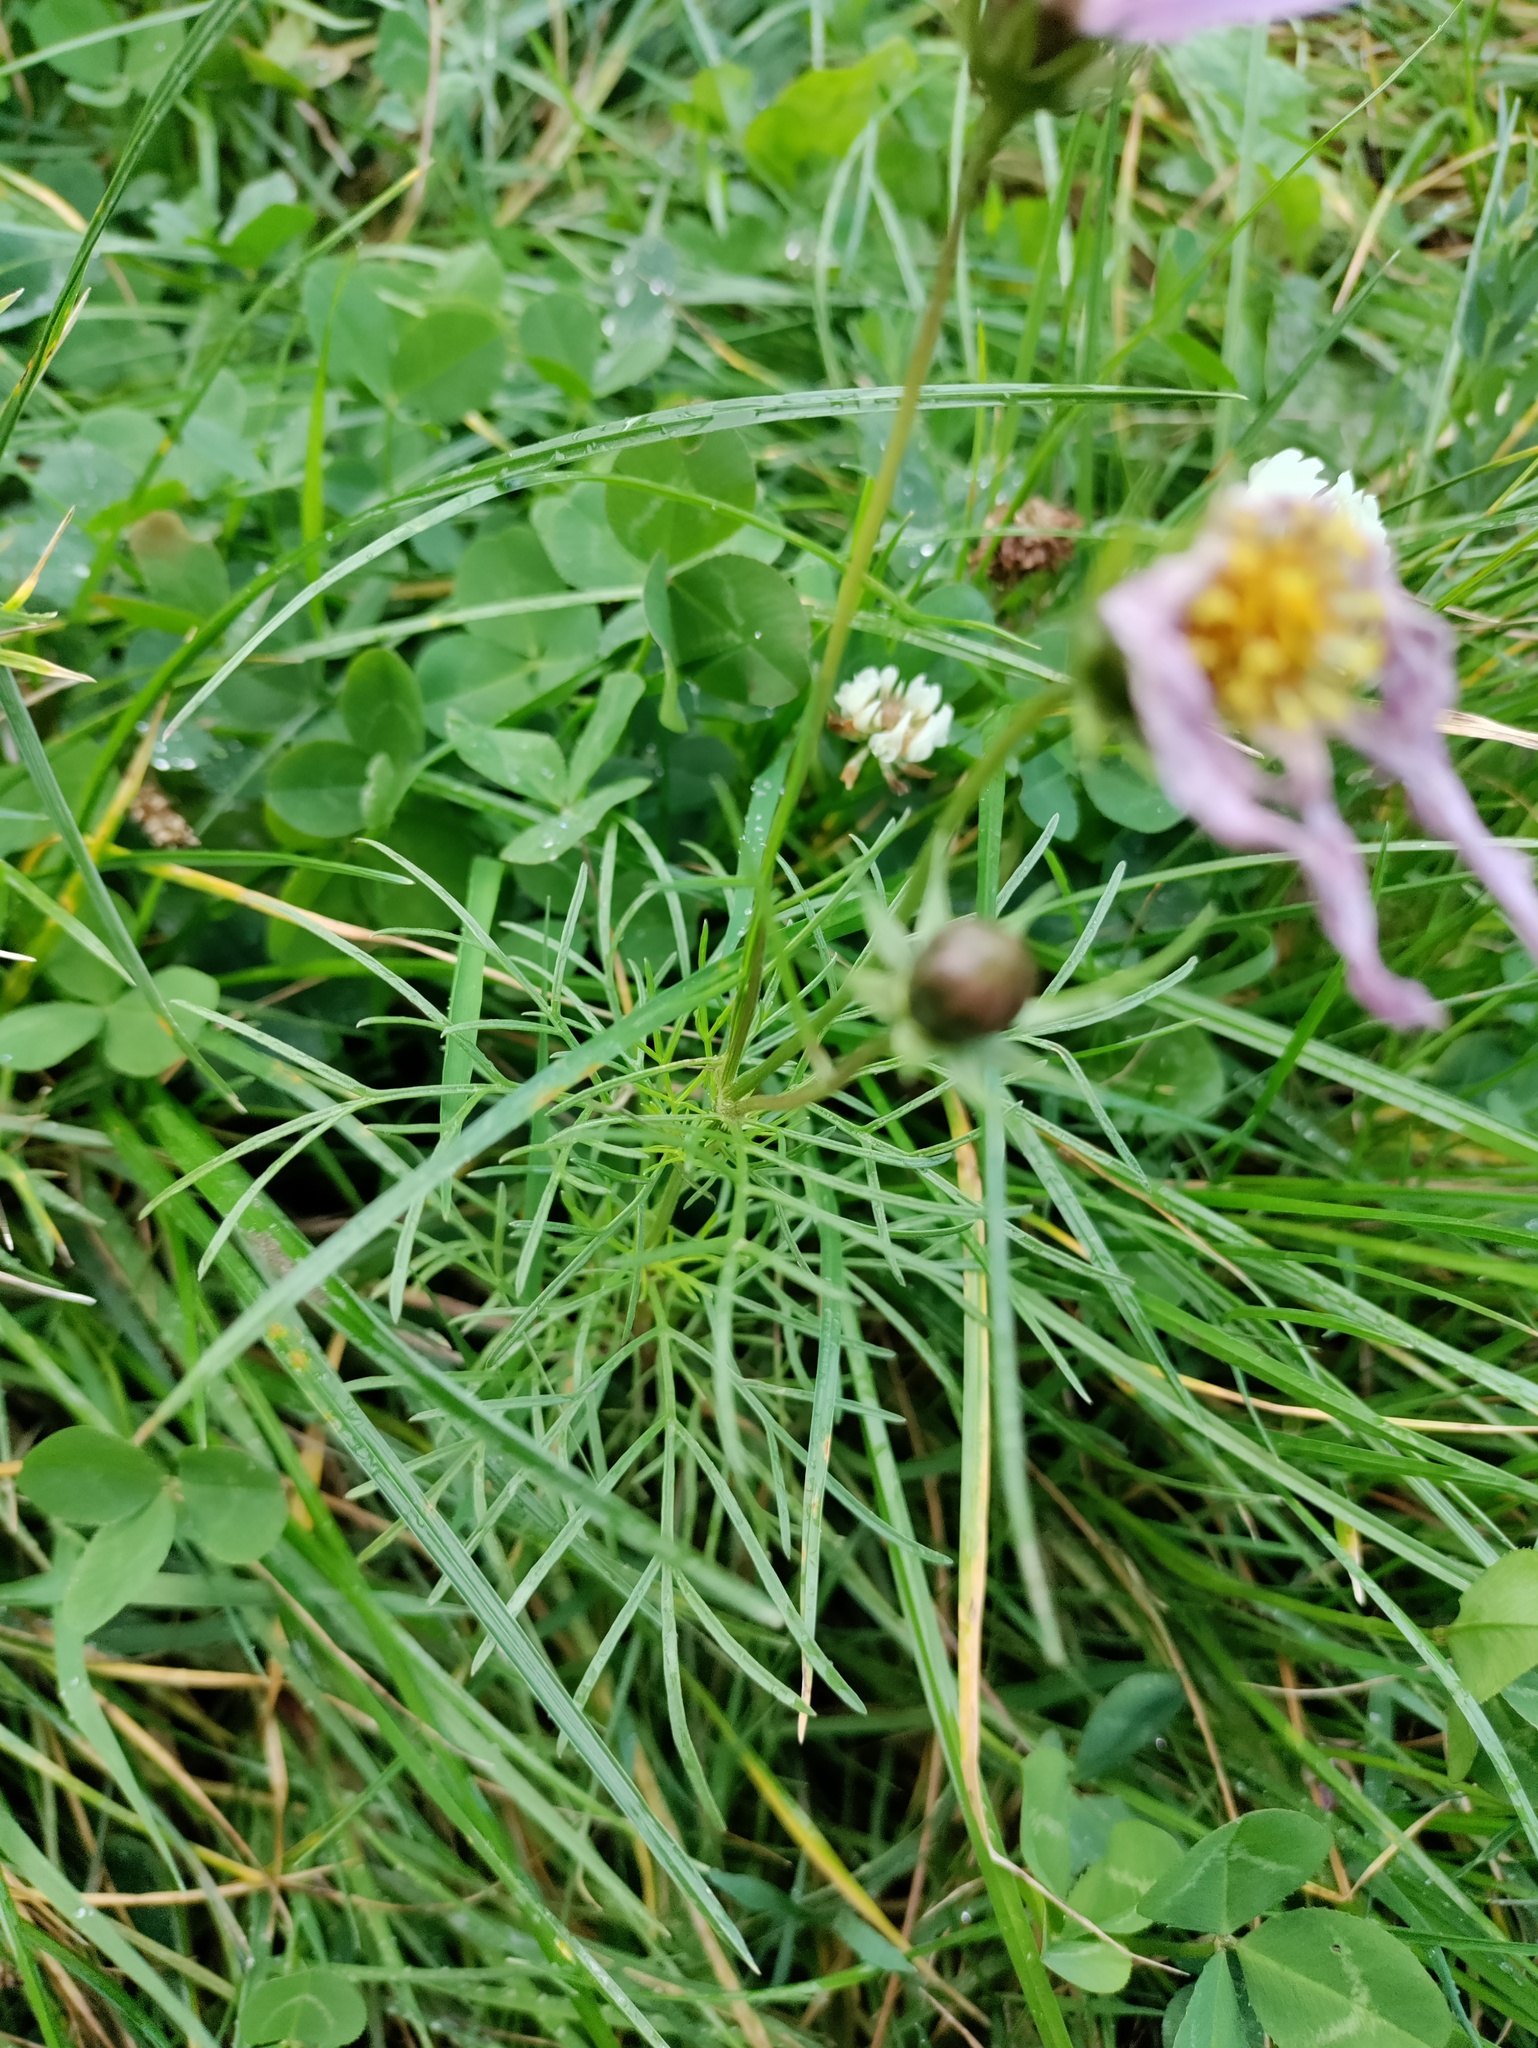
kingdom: Plantae
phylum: Tracheophyta
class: Magnoliopsida
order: Asterales
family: Asteraceae
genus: Cosmos
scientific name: Cosmos bipinnatus
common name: Garden cosmos
